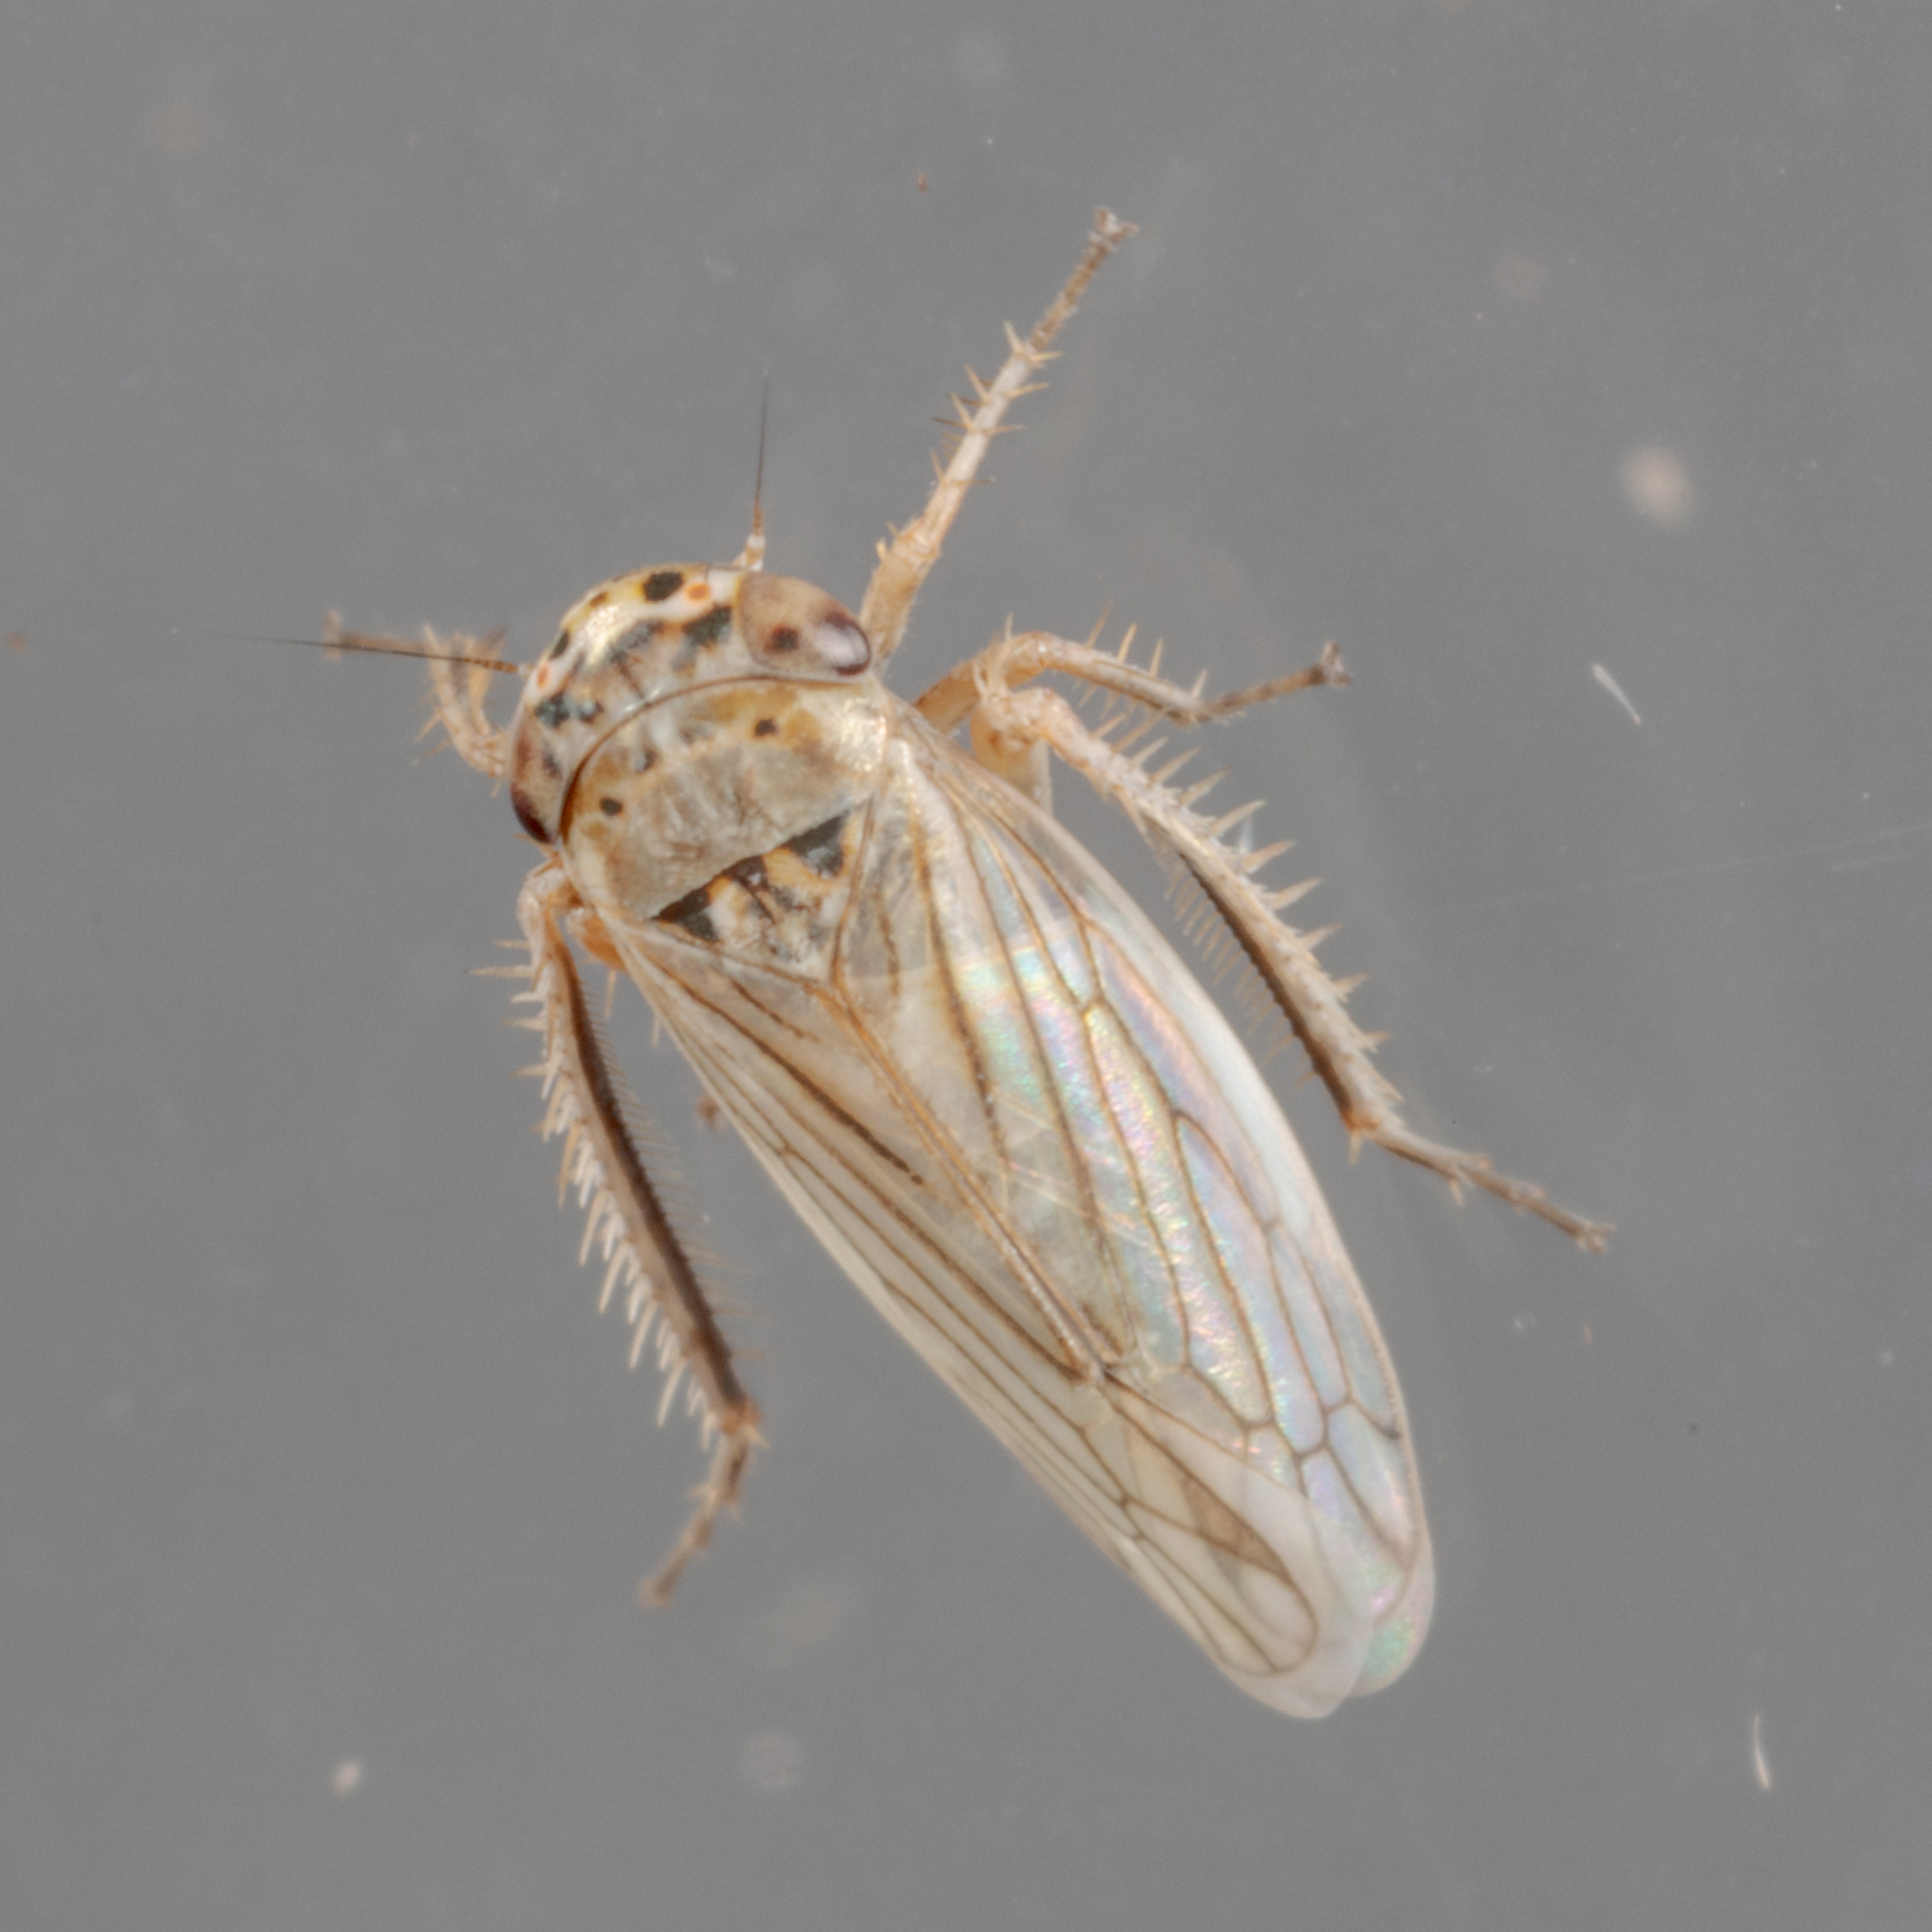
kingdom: Animalia
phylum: Arthropoda
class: Insecta
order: Hemiptera
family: Cicadellidae
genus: Exitianus
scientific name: Exitianus exitiosus
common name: Gray lawn leafhopper
